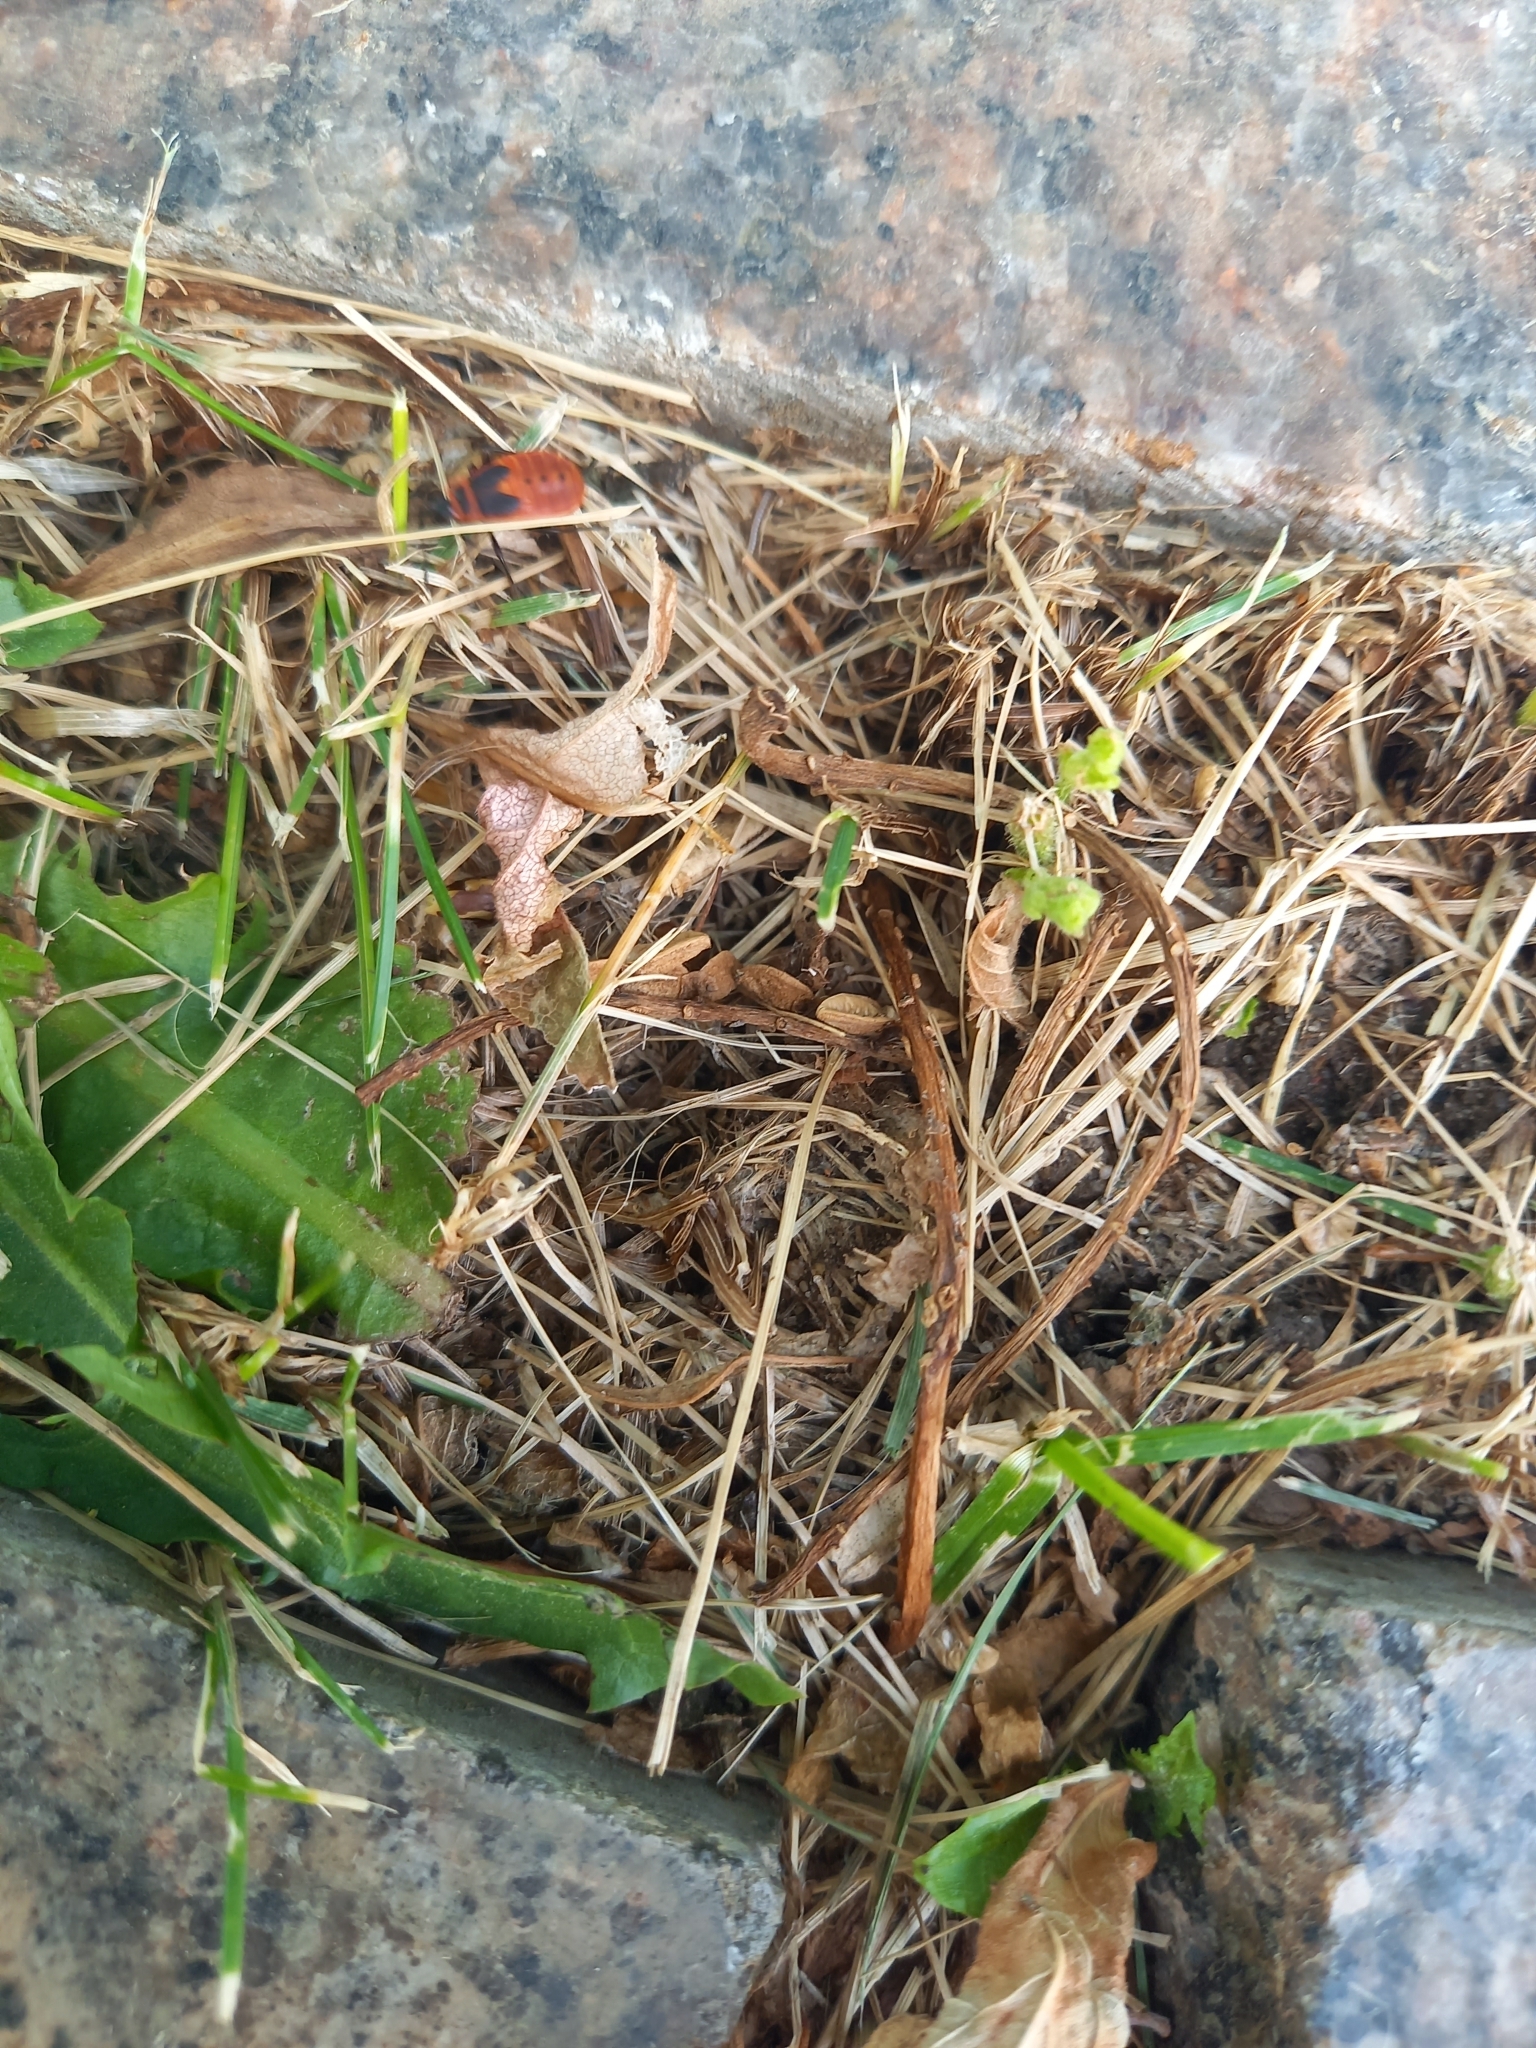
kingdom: Animalia
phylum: Arthropoda
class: Insecta
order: Hemiptera
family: Pyrrhocoridae
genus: Pyrrhocoris
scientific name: Pyrrhocoris apterus
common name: Firebug
